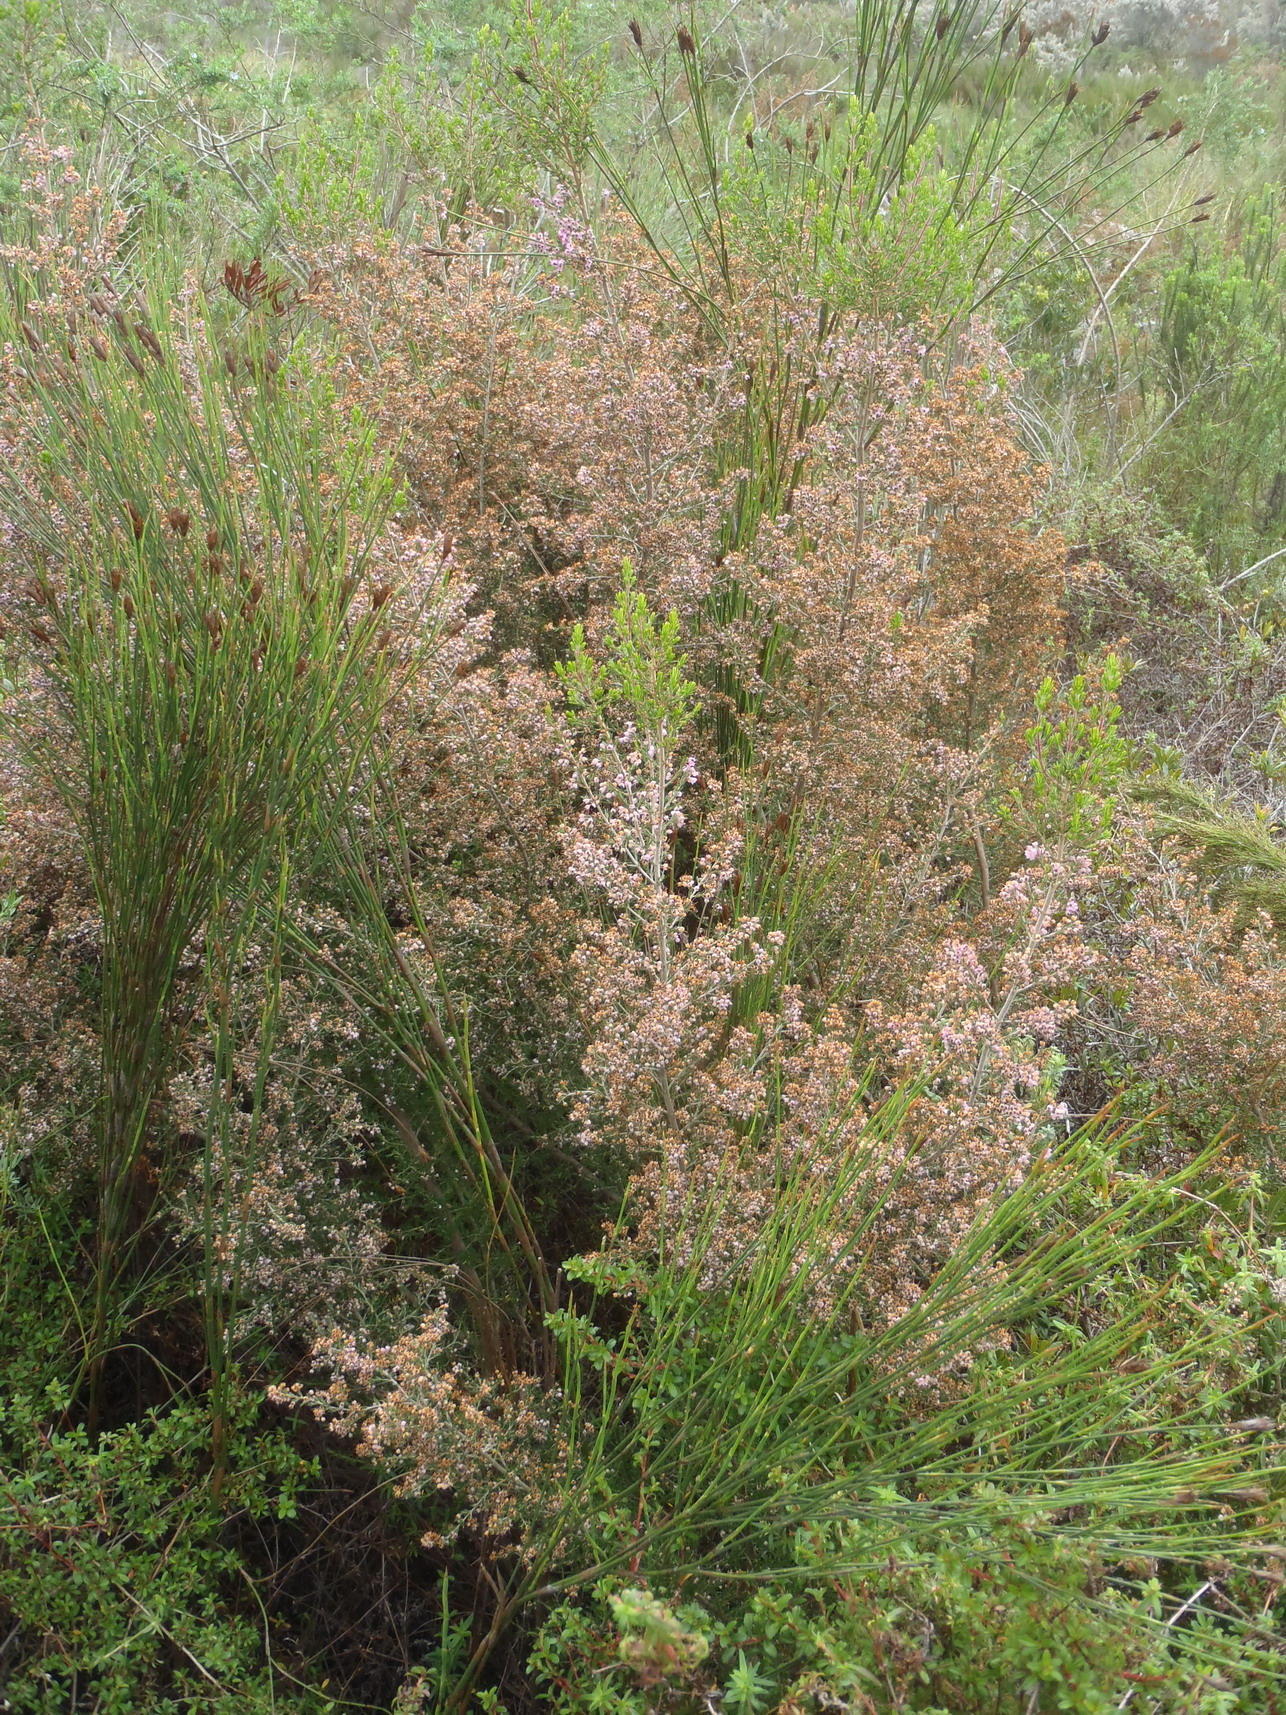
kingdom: Plantae
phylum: Tracheophyta
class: Magnoliopsida
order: Ericales
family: Ericaceae
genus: Erica
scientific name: Erica canaliculata
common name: Hairy grey heather
